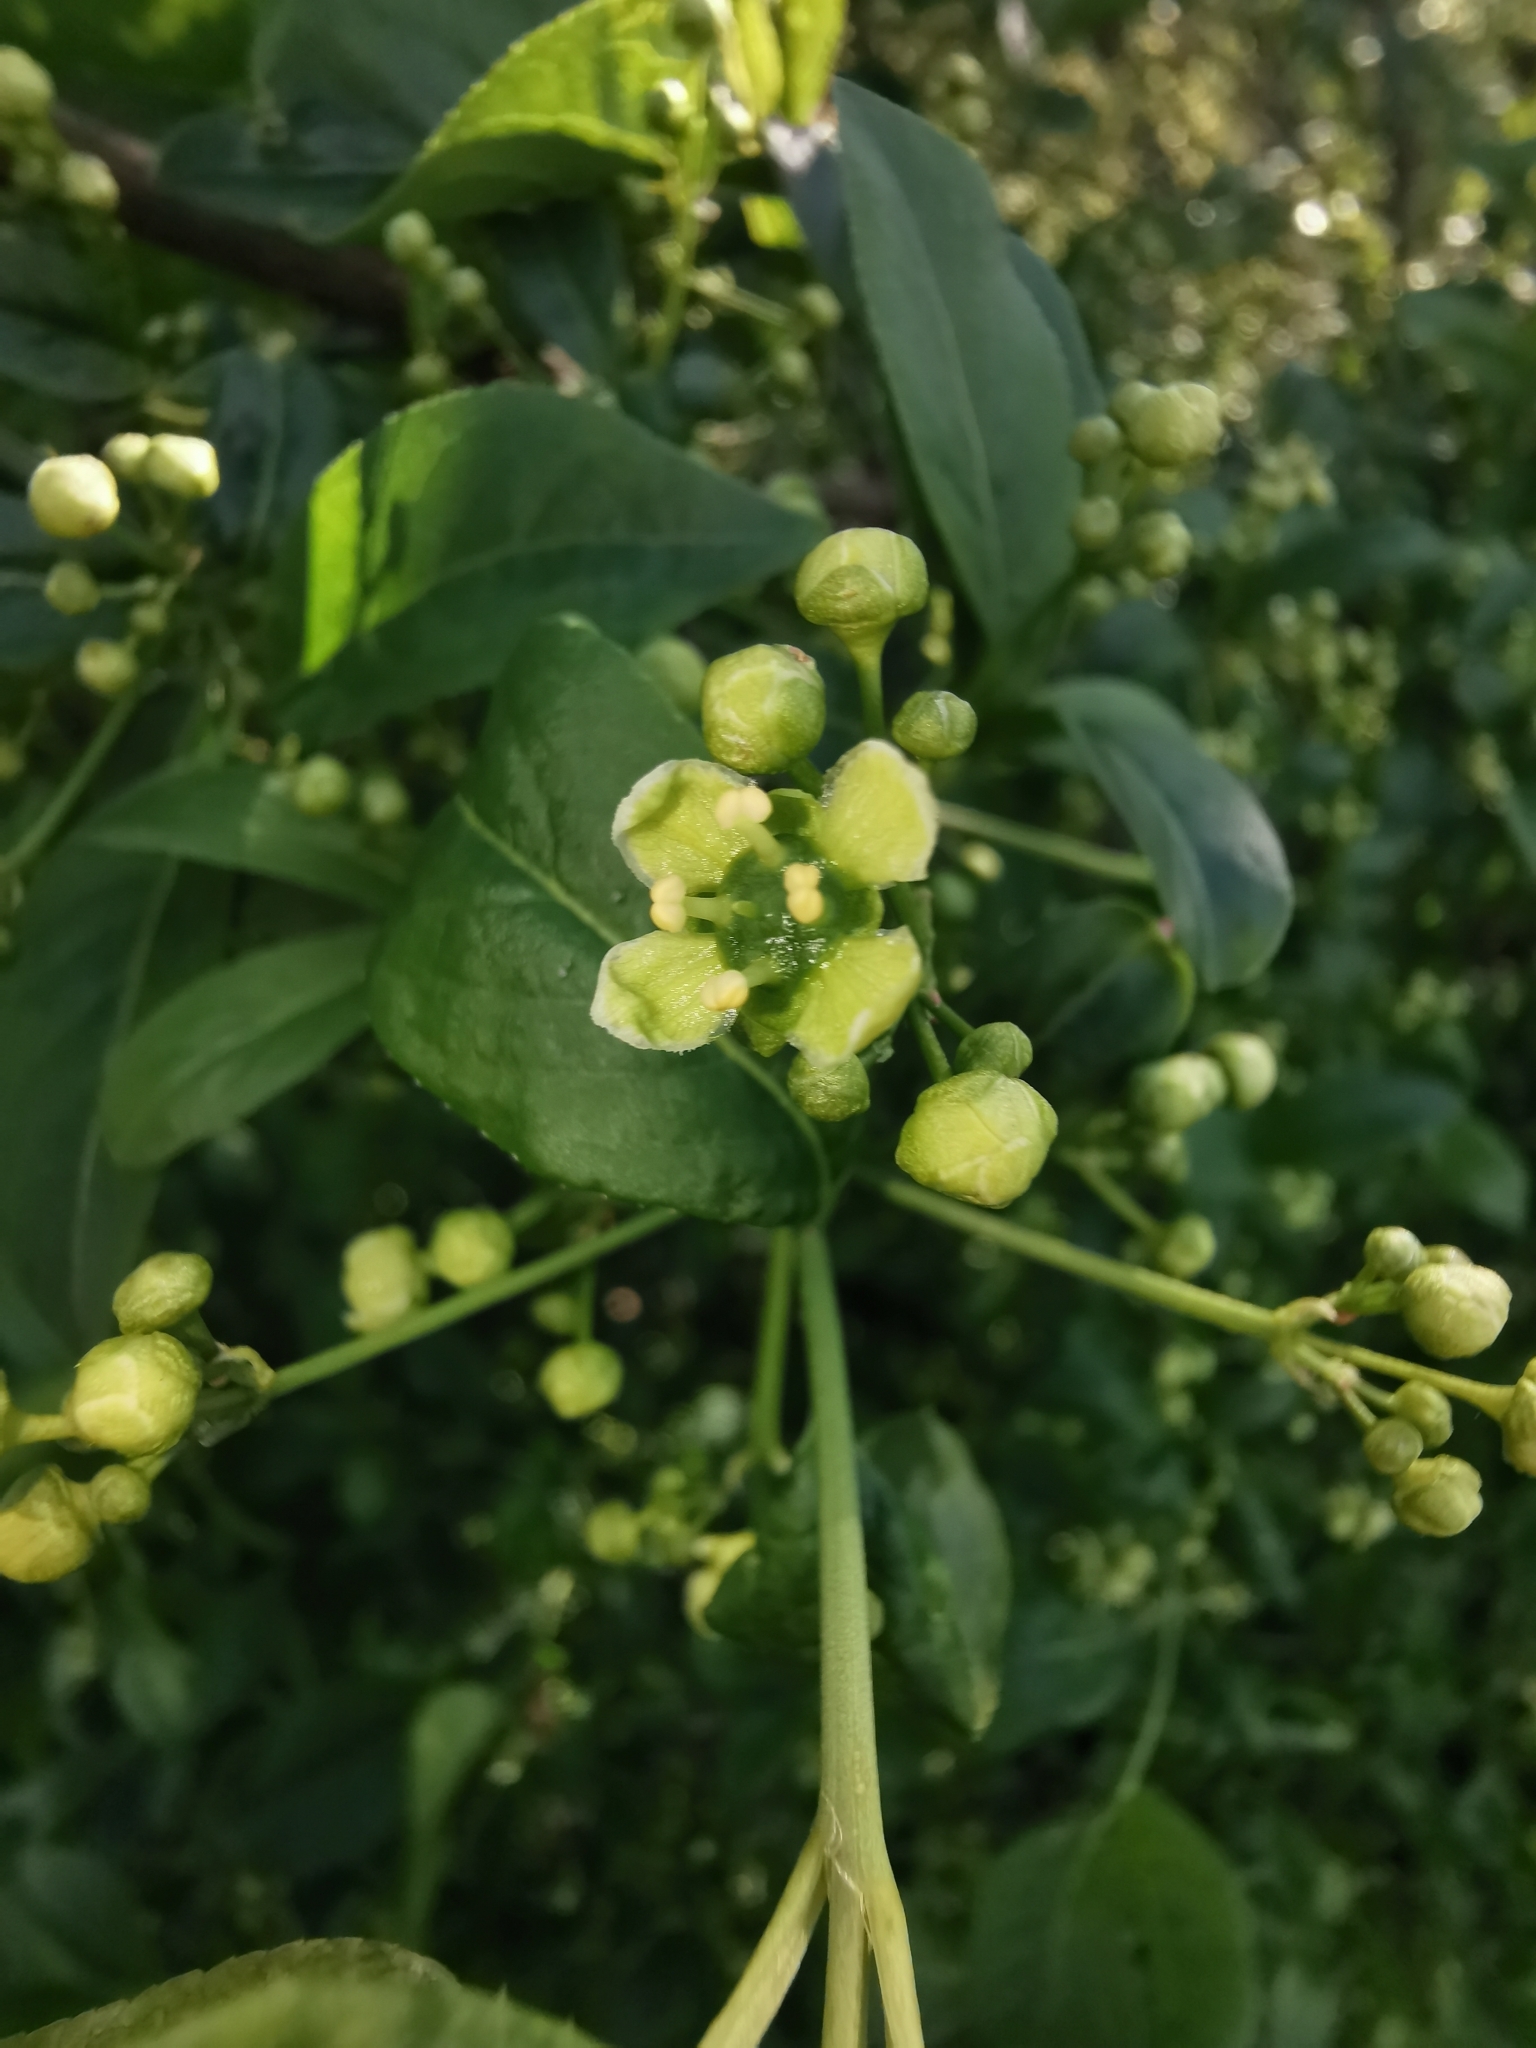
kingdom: Plantae
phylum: Tracheophyta
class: Magnoliopsida
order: Celastrales
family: Celastraceae
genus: Euonymus
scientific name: Euonymus europaeus
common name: Spindle
